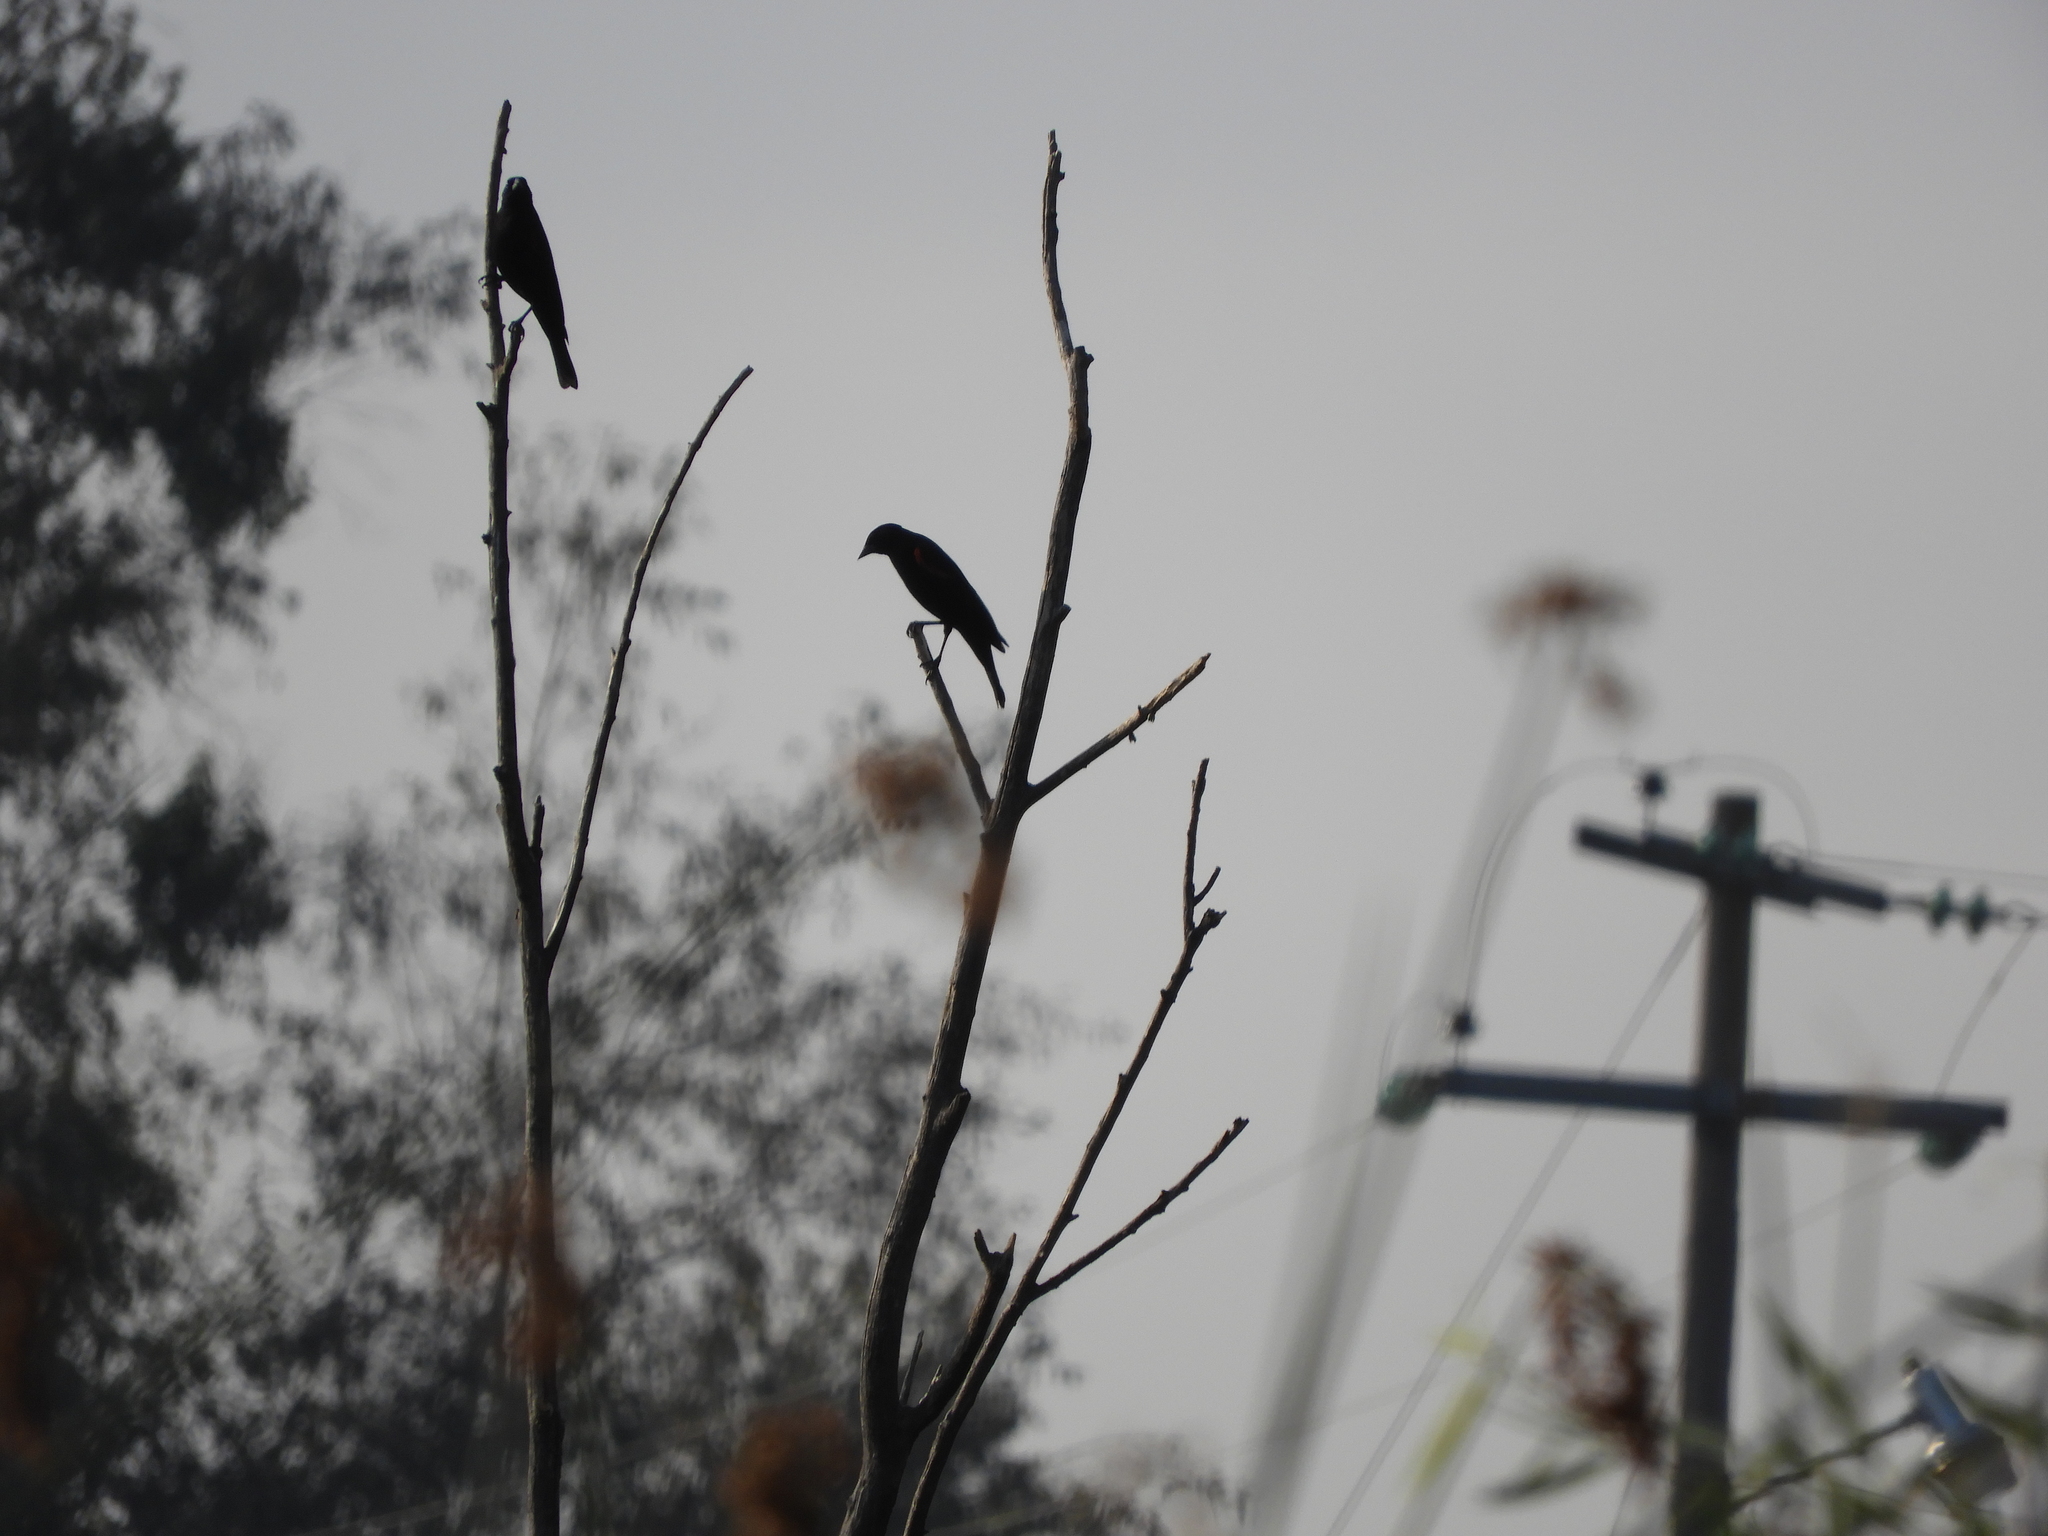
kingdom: Animalia
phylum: Chordata
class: Aves
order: Passeriformes
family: Icteridae
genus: Agelaius
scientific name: Agelaius phoeniceus
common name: Red-winged blackbird
